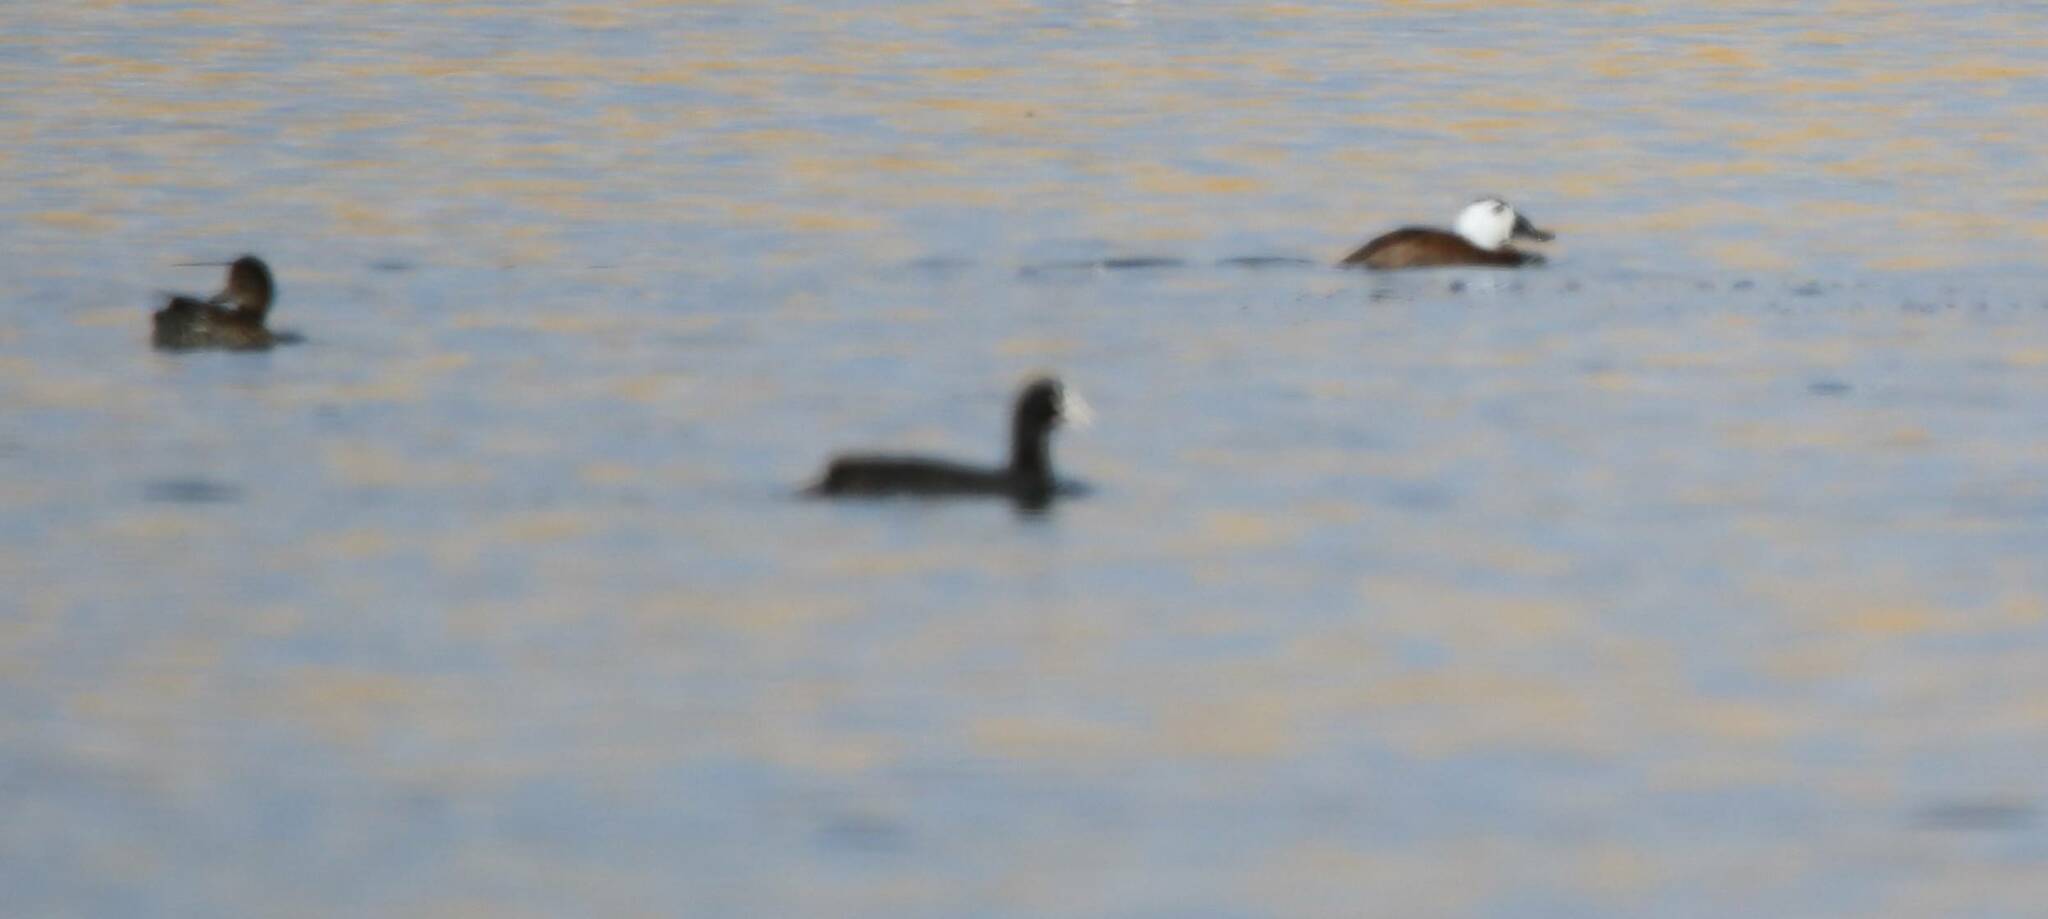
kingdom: Animalia
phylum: Chordata
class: Aves
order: Anseriformes
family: Anatidae
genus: Oxyura
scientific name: Oxyura leucocephala
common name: White-headed duck
